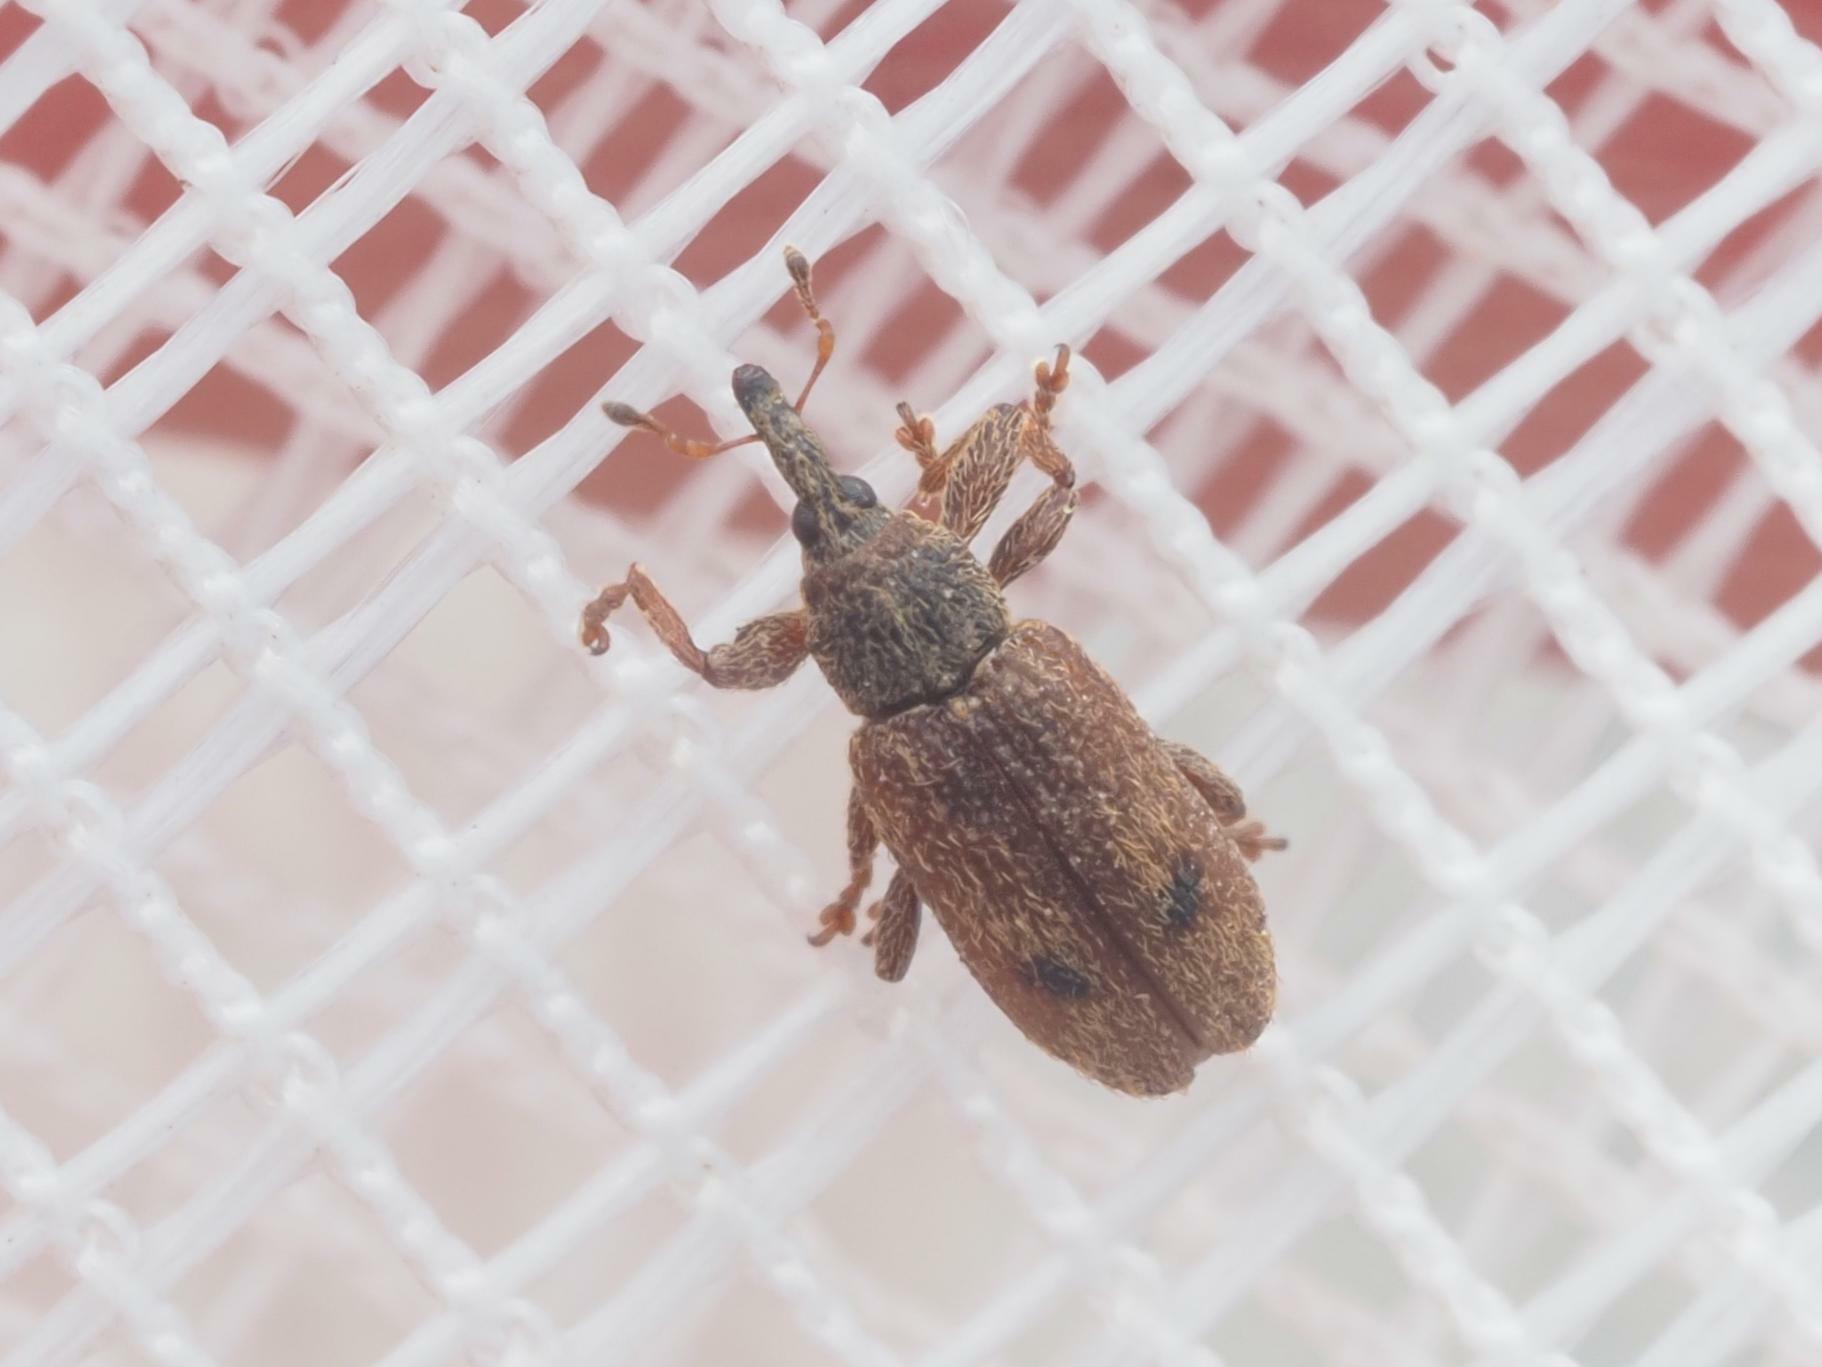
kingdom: Animalia
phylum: Arthropoda
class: Insecta
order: Coleoptera
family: Curculionidae
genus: Bradybatus
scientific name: Bradybatus creutzeri
